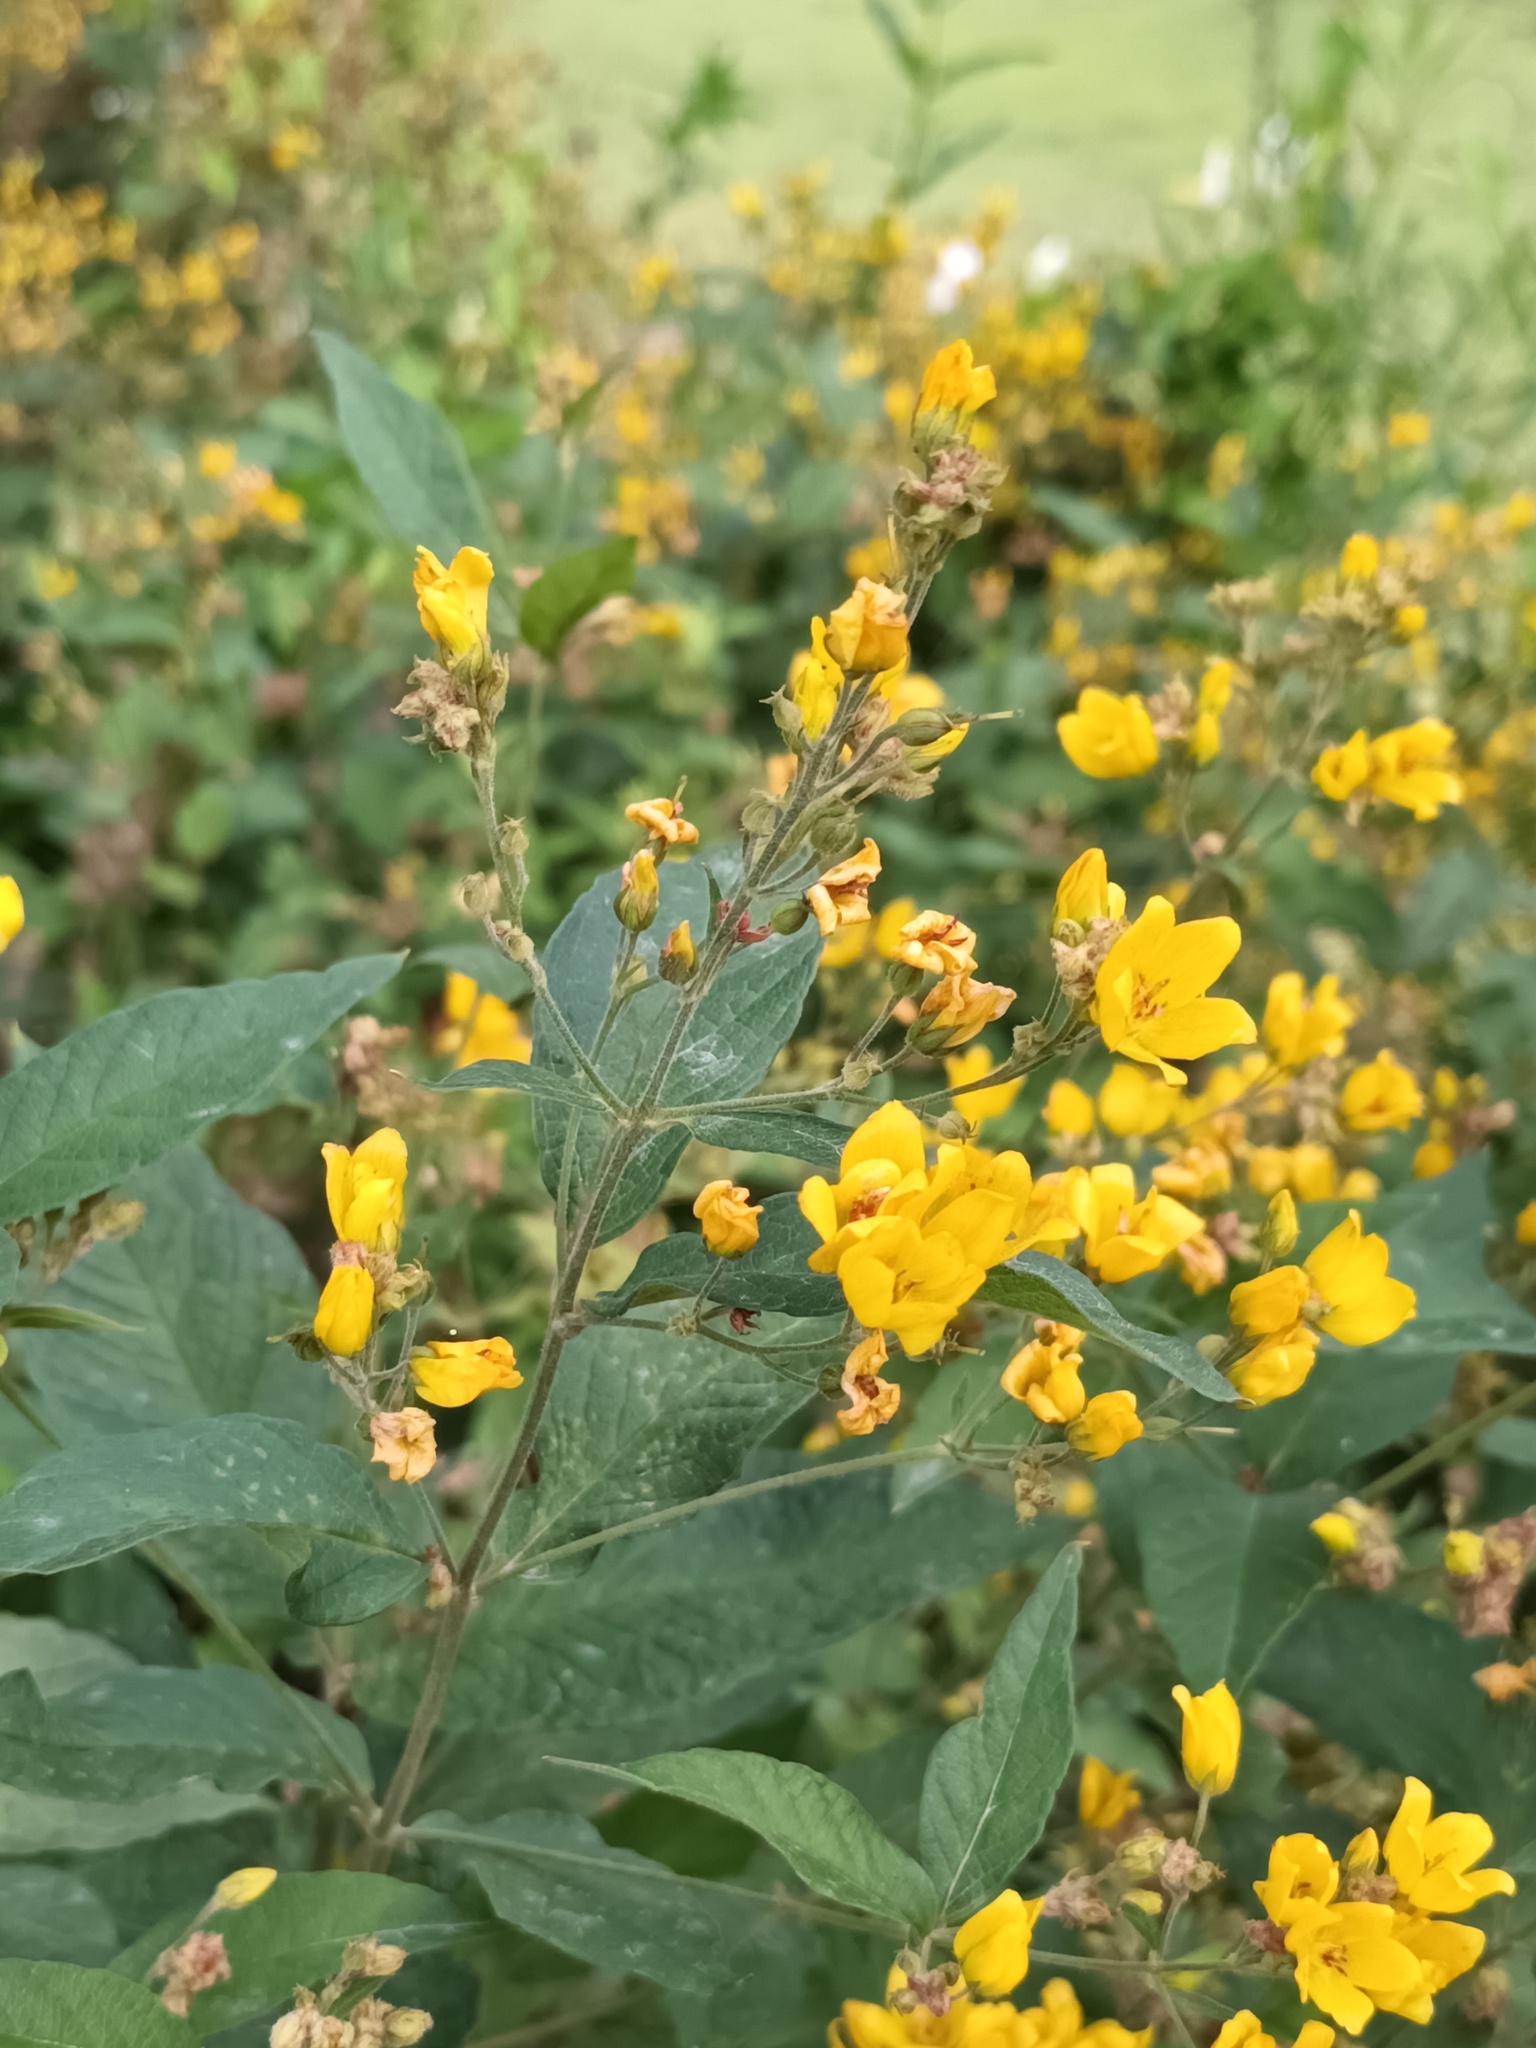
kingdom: Plantae
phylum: Tracheophyta
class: Magnoliopsida
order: Ericales
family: Primulaceae
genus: Lysimachia
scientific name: Lysimachia vulgaris
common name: Yellow loosestrife
